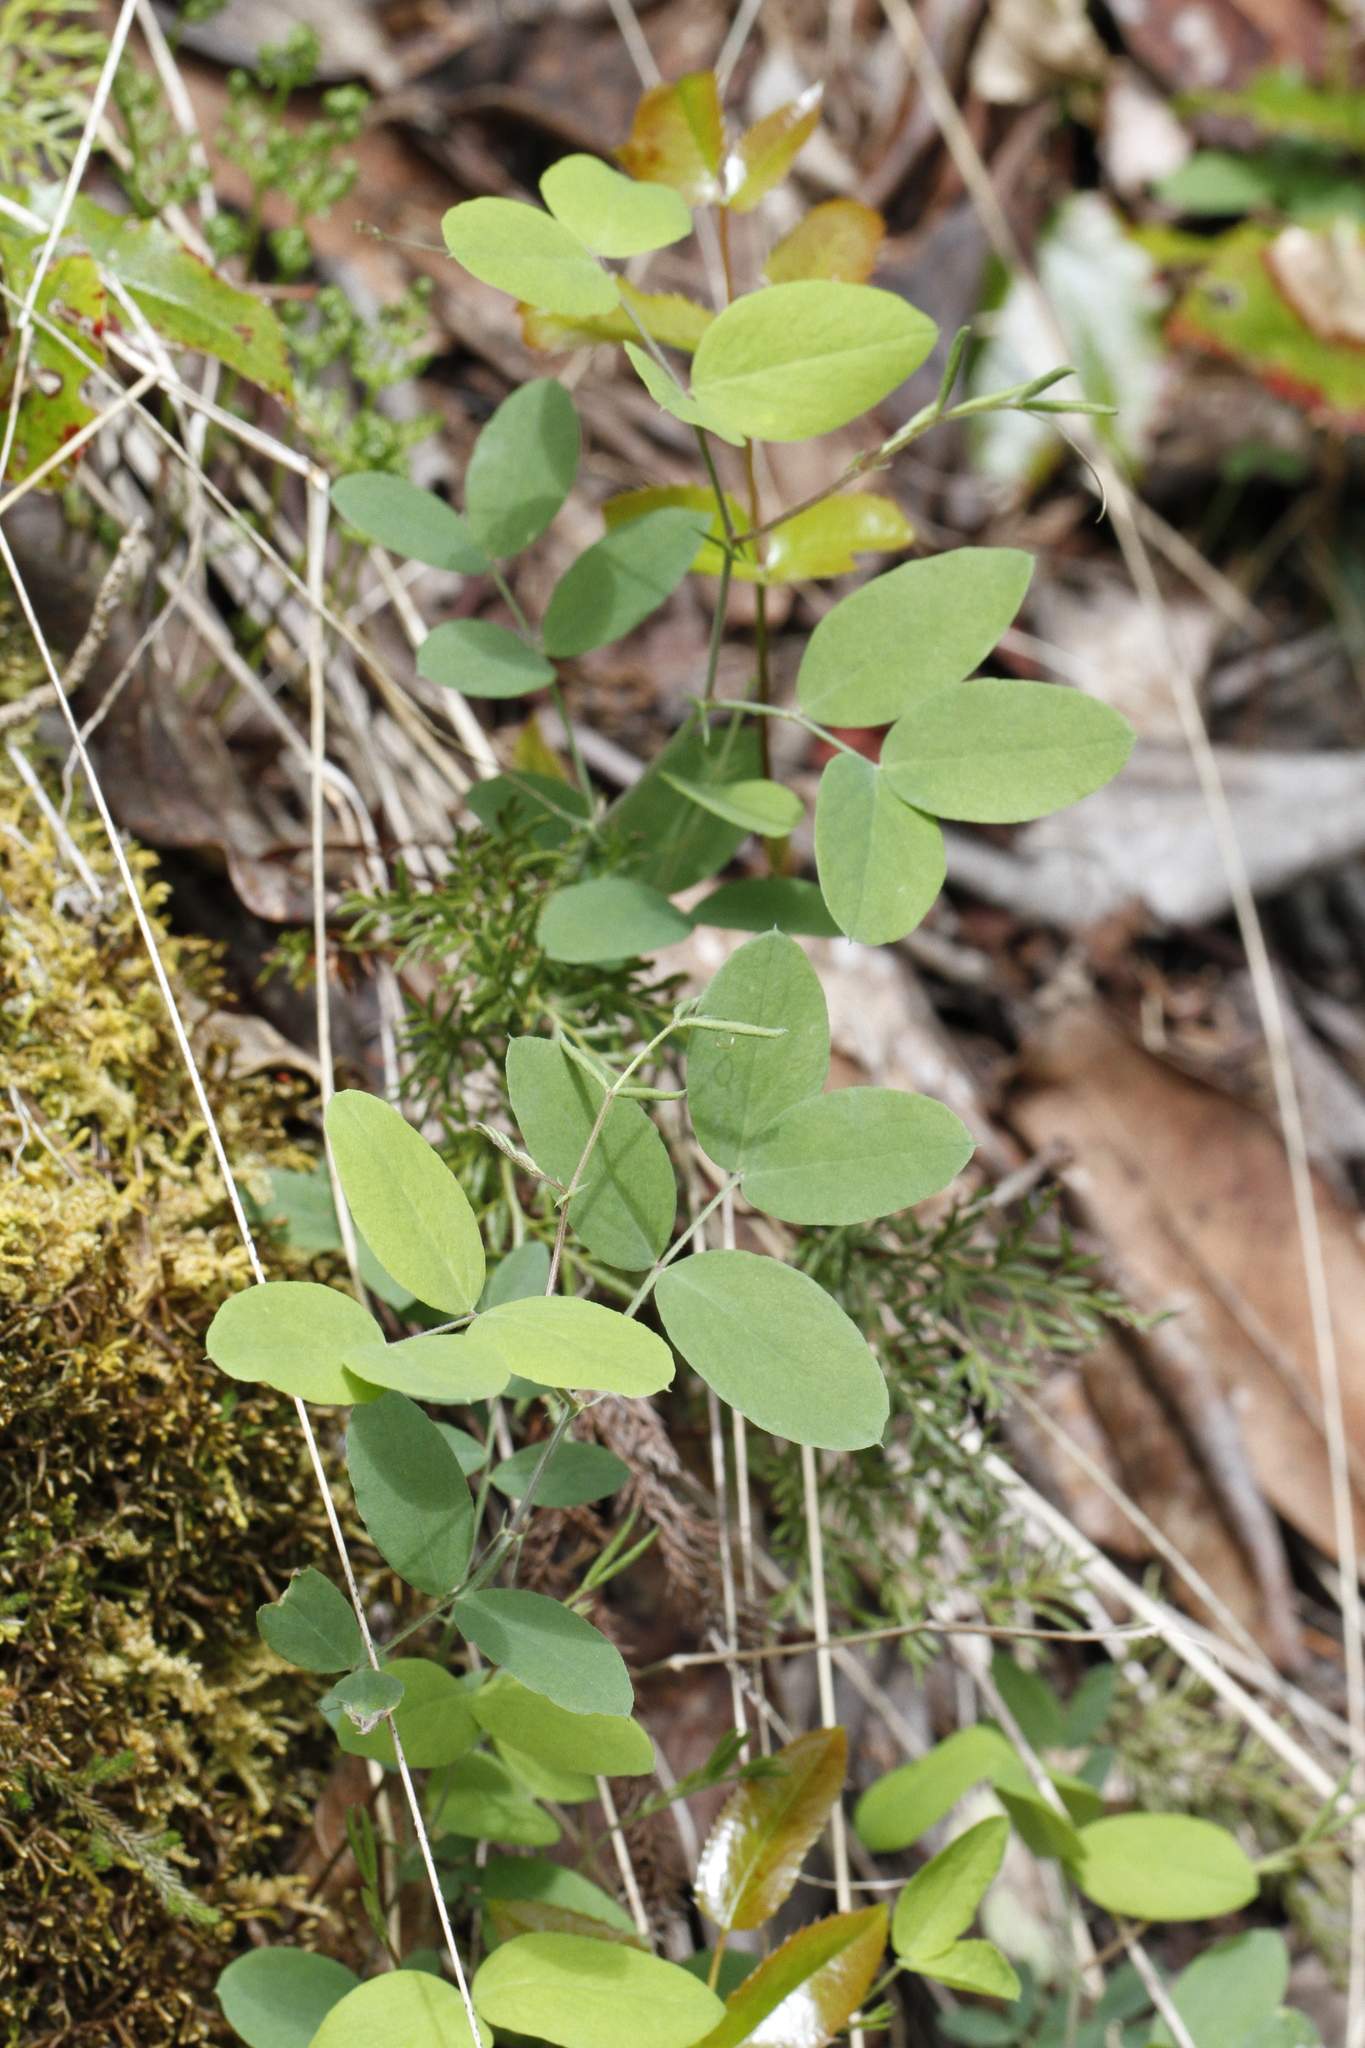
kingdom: Plantae
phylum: Tracheophyta
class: Magnoliopsida
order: Fabales
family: Fabaceae
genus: Lathyrus
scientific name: Lathyrus nevadensis
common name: Sierra nevada peavine
